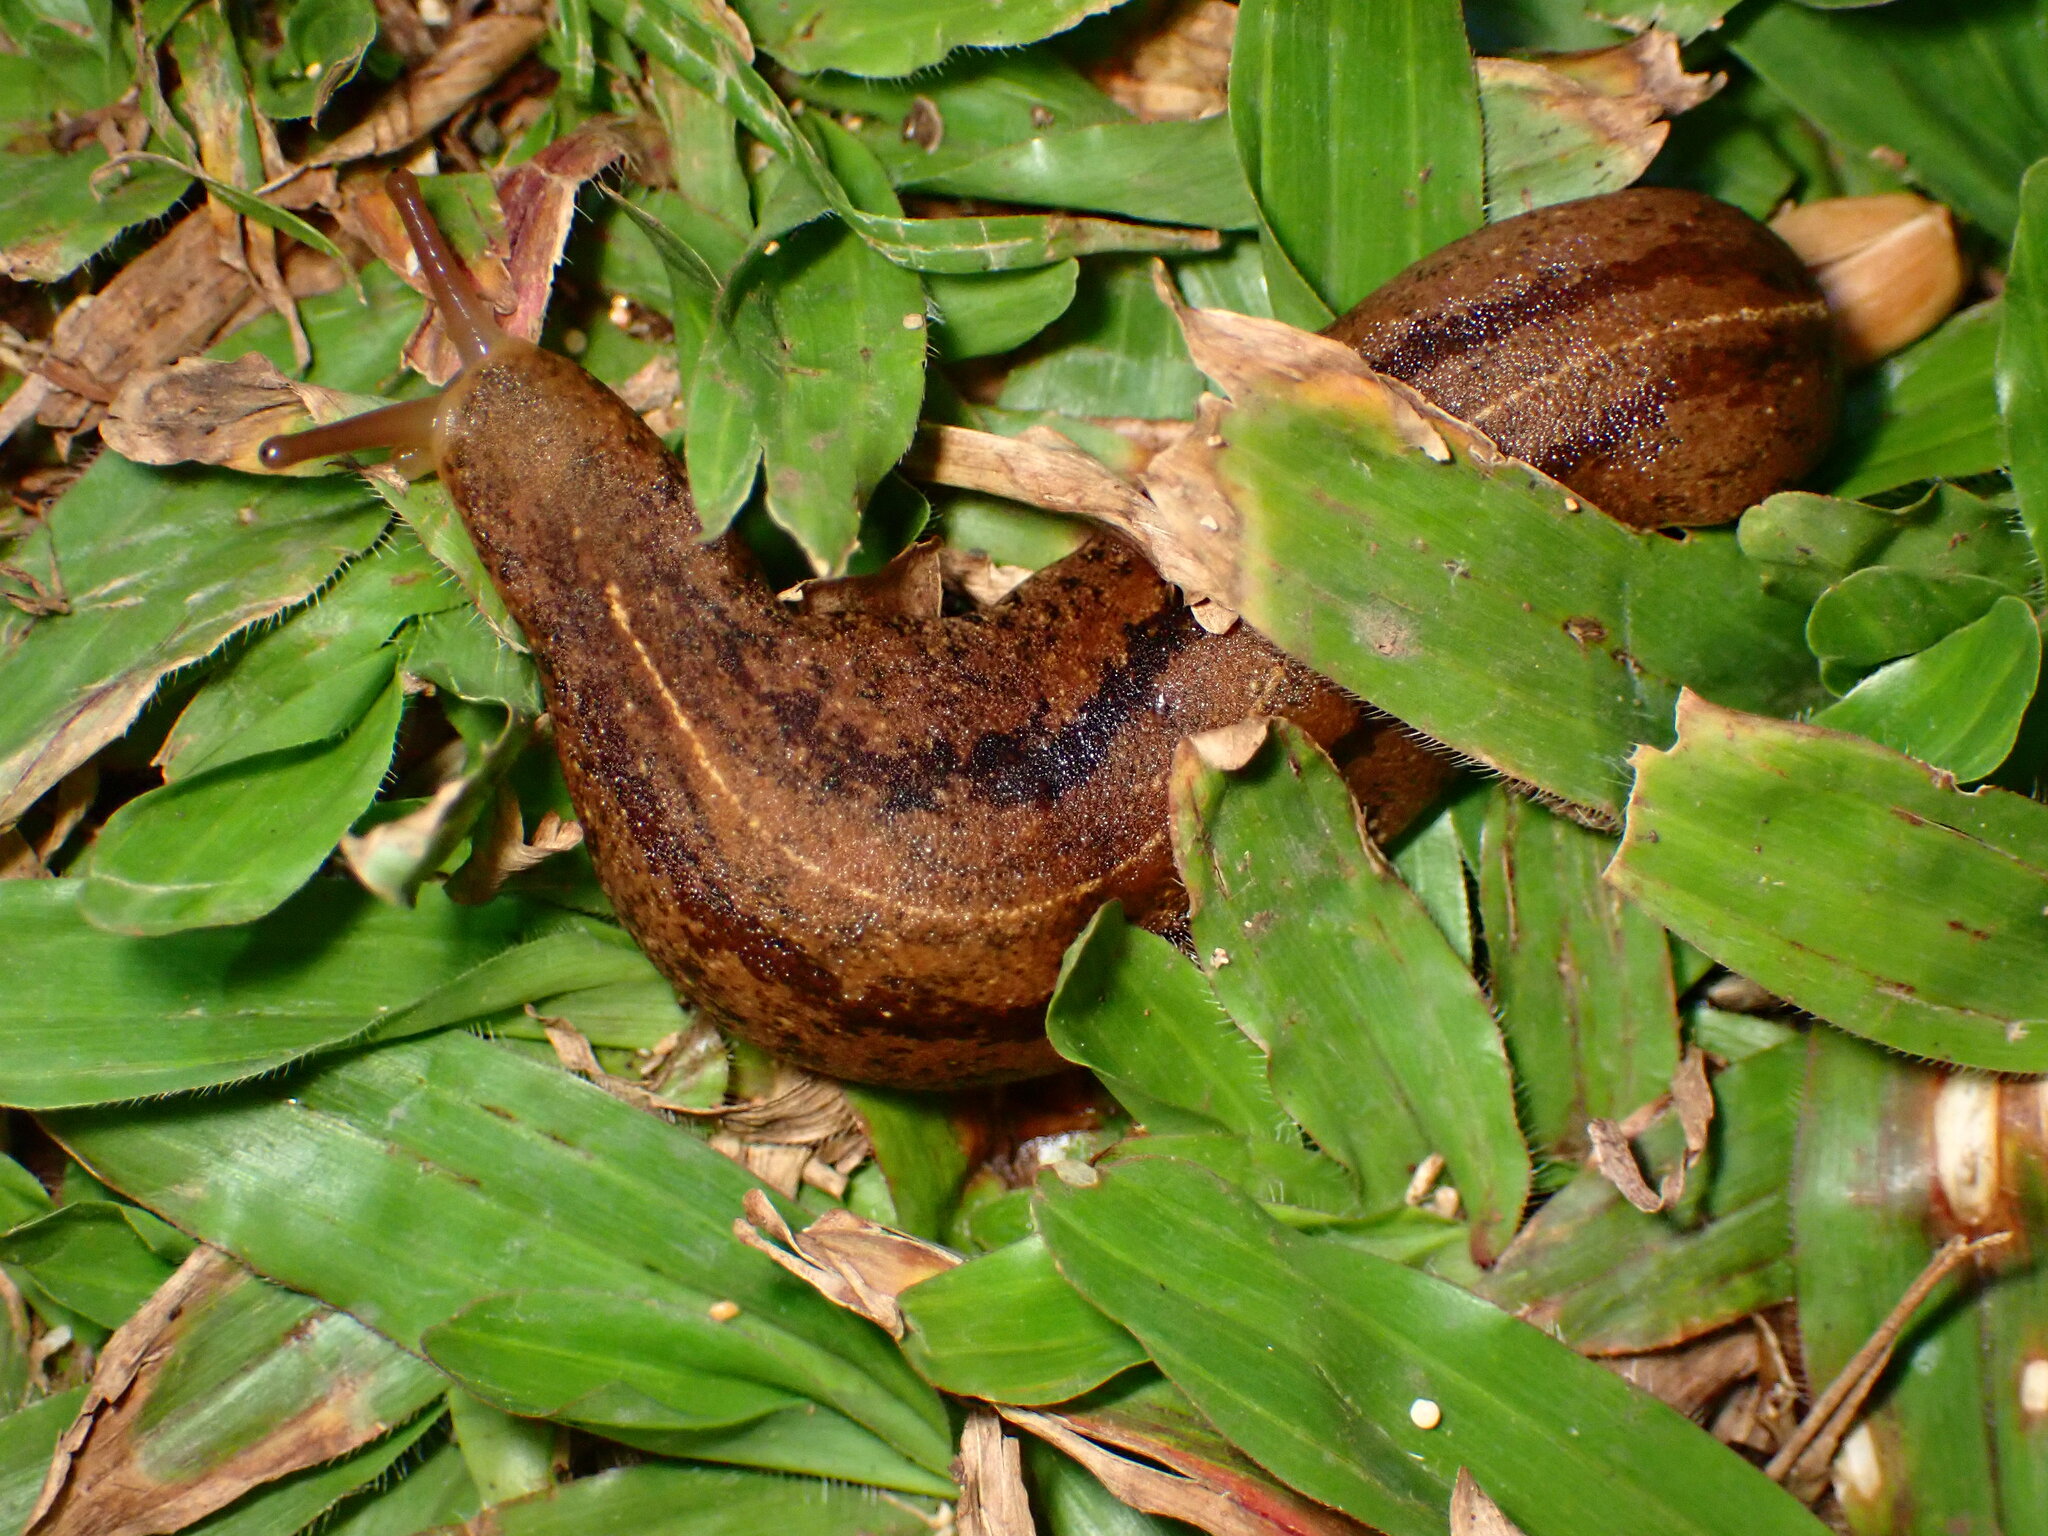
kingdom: Animalia
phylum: Mollusca
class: Gastropoda
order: Systellommatophora
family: Veronicellidae
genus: Veronicella
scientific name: Veronicella cubensis
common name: Two striped slug
